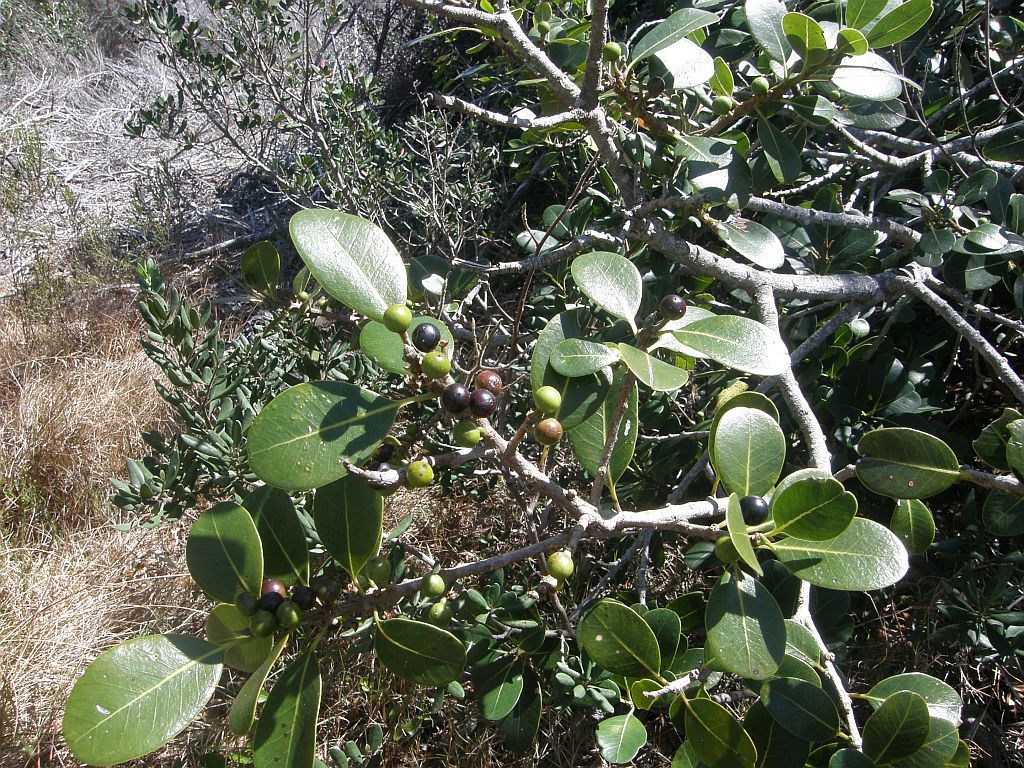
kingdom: Plantae
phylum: Tracheophyta
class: Magnoliopsida
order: Ericales
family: Sapotaceae
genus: Sideroxylon
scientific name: Sideroxylon inerme
